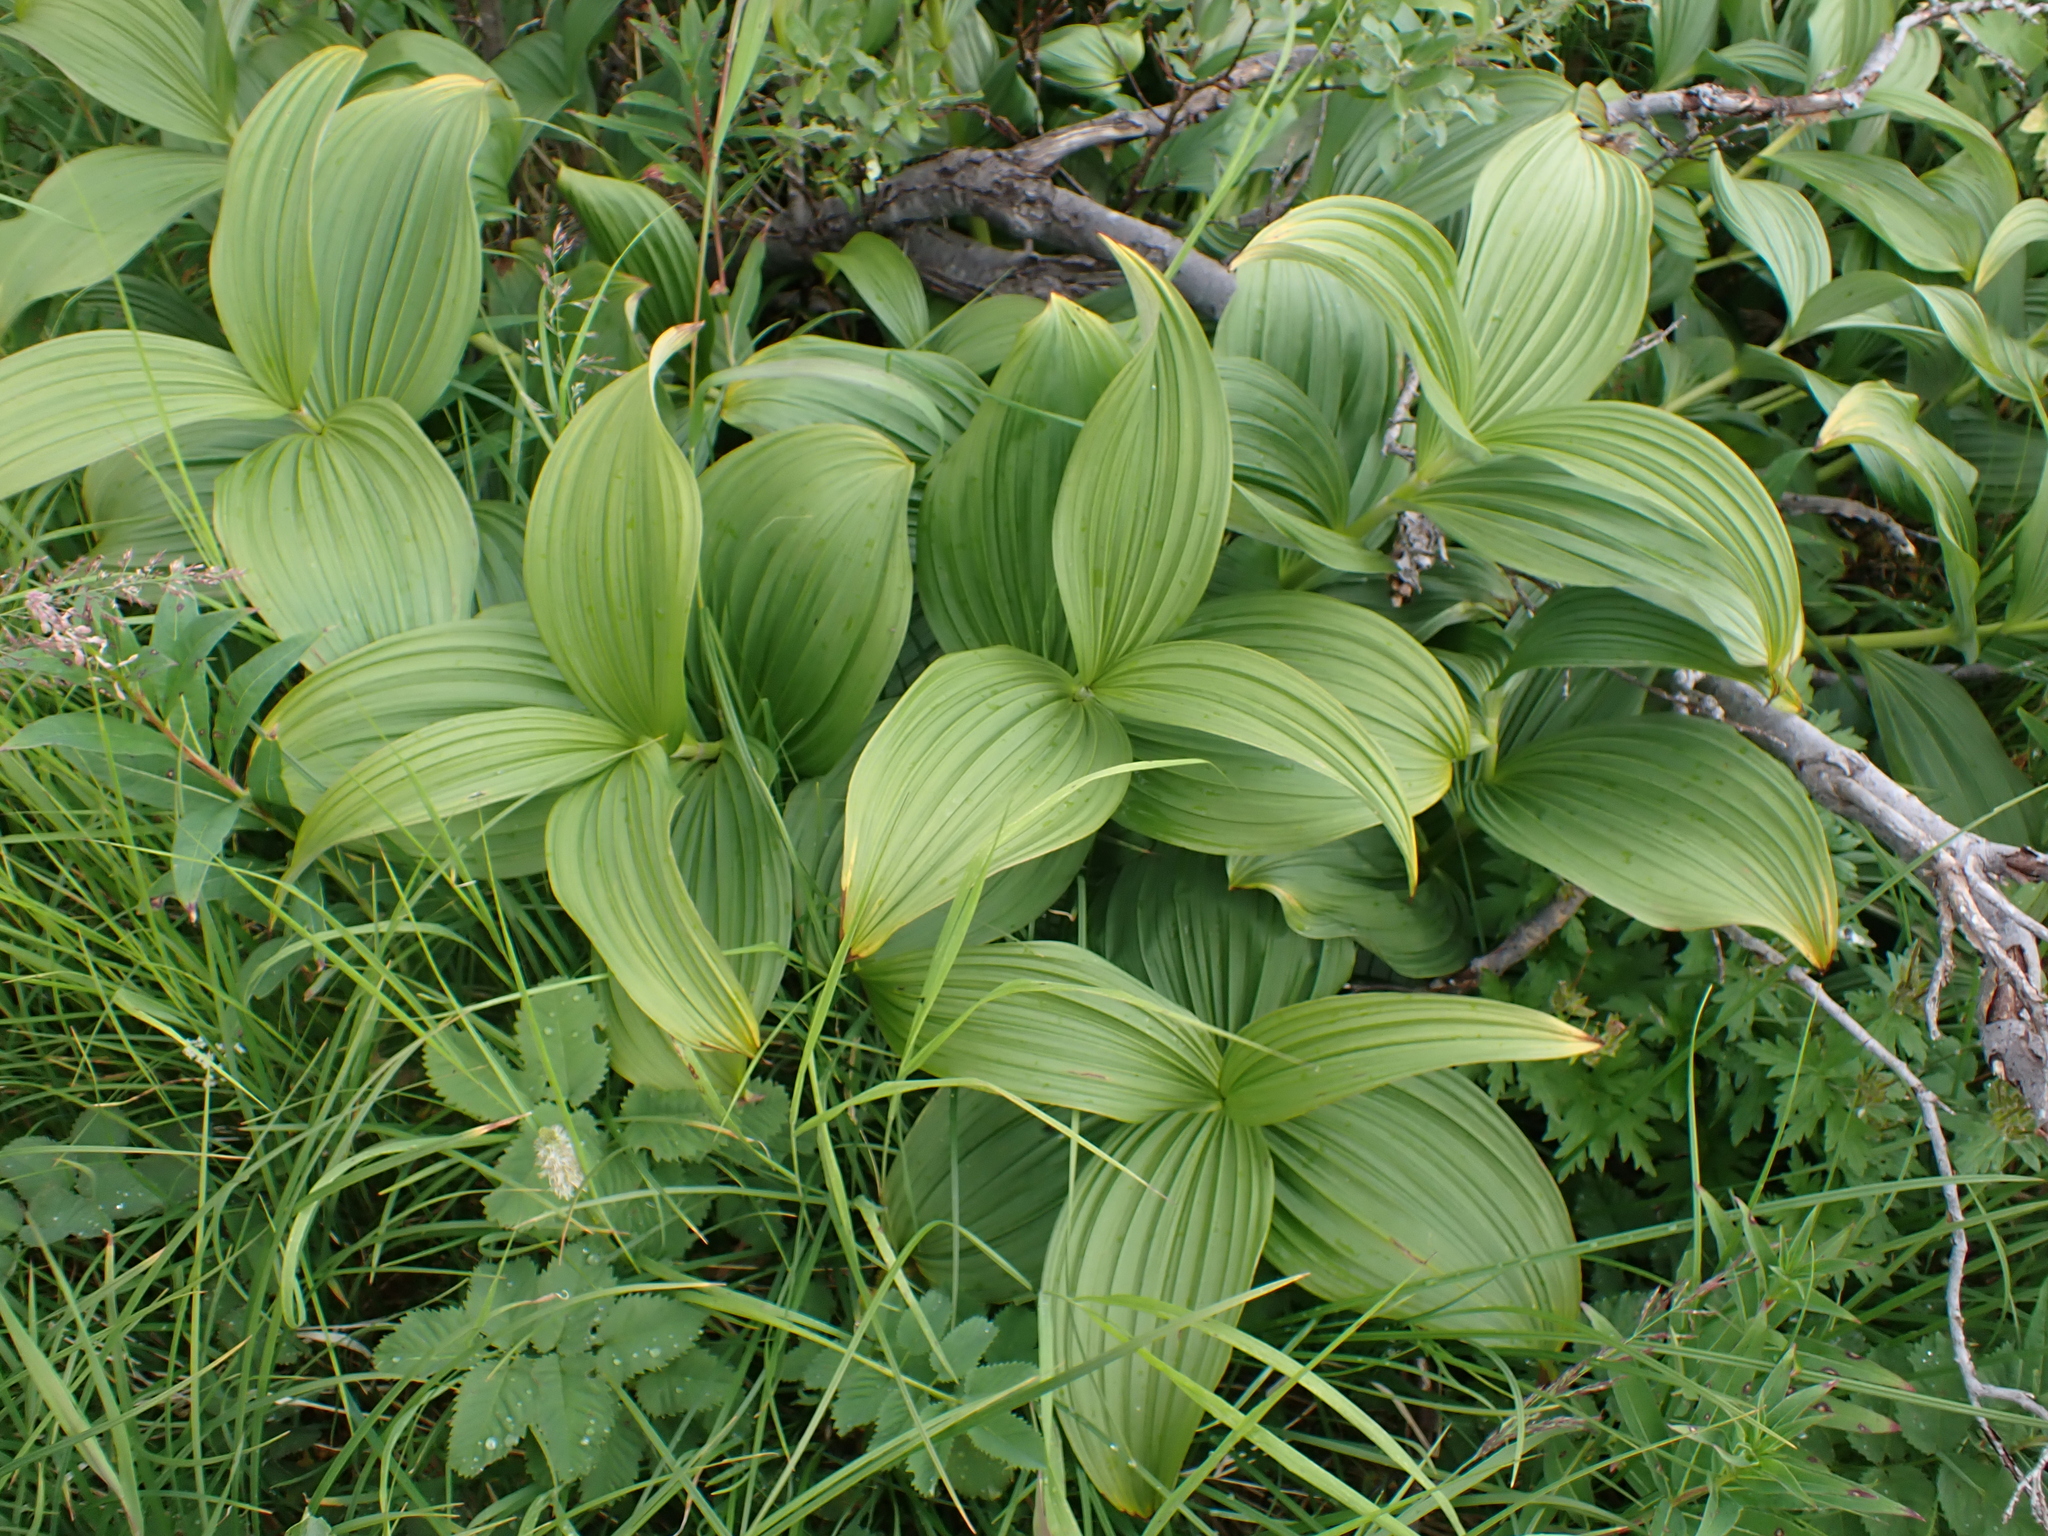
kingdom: Plantae
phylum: Tracheophyta
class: Liliopsida
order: Liliales
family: Melanthiaceae
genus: Veratrum
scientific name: Veratrum viride
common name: American false hellebore
